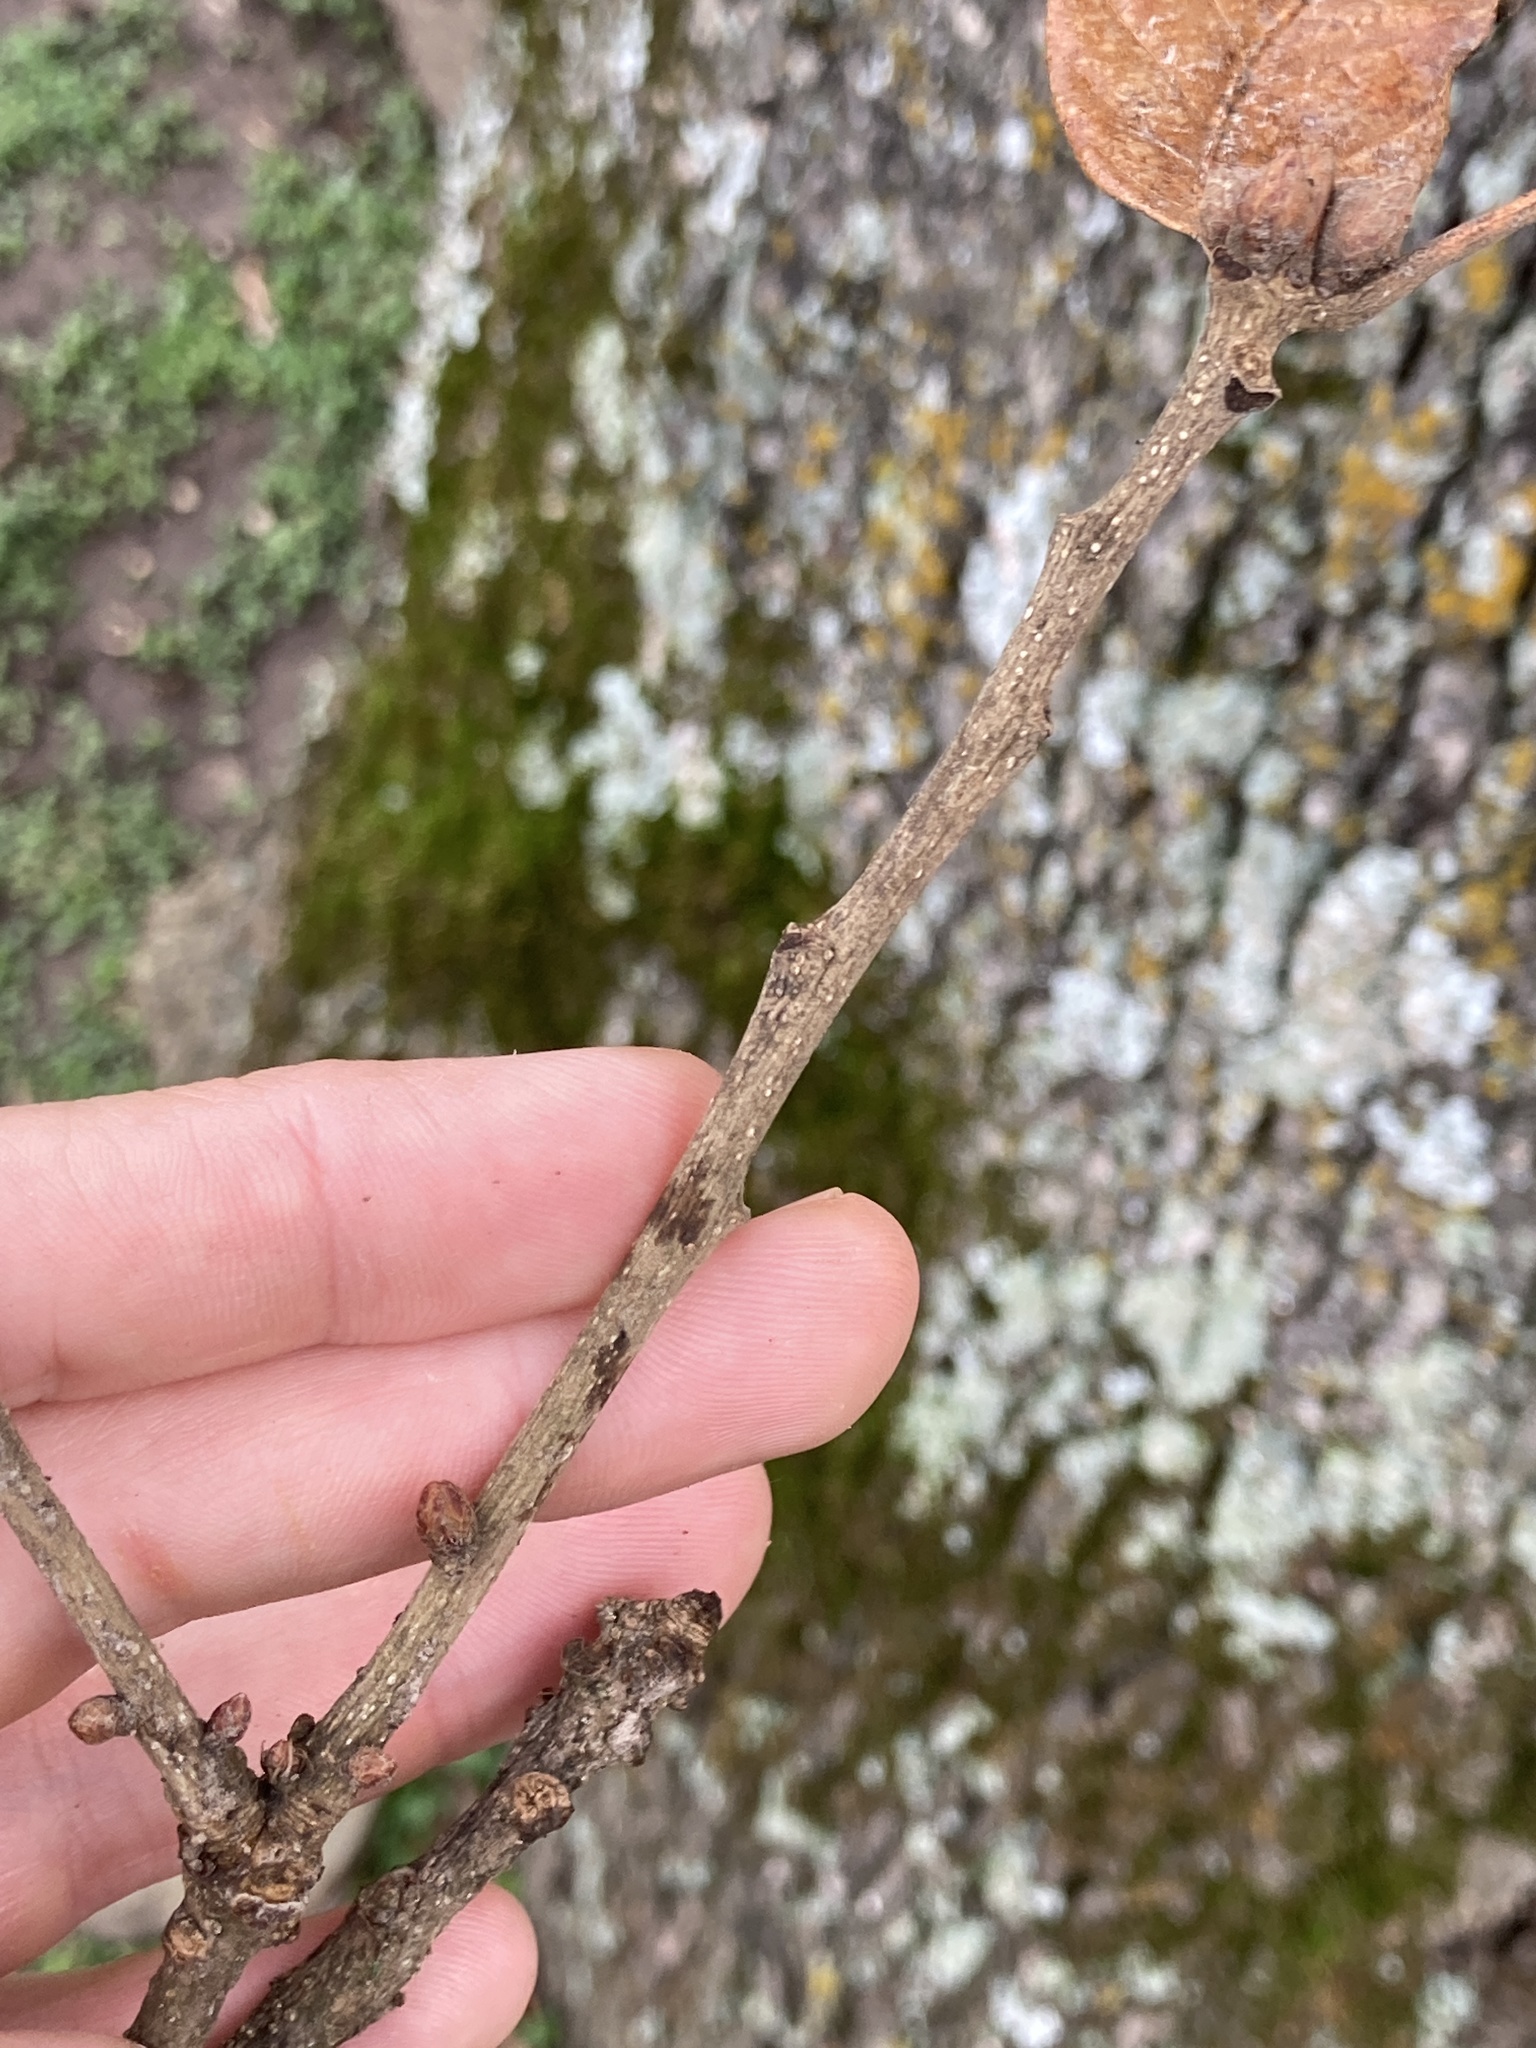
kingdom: Plantae
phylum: Tracheophyta
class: Magnoliopsida
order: Fagales
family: Fagaceae
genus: Quercus
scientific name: Quercus stellata
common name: Post oak
